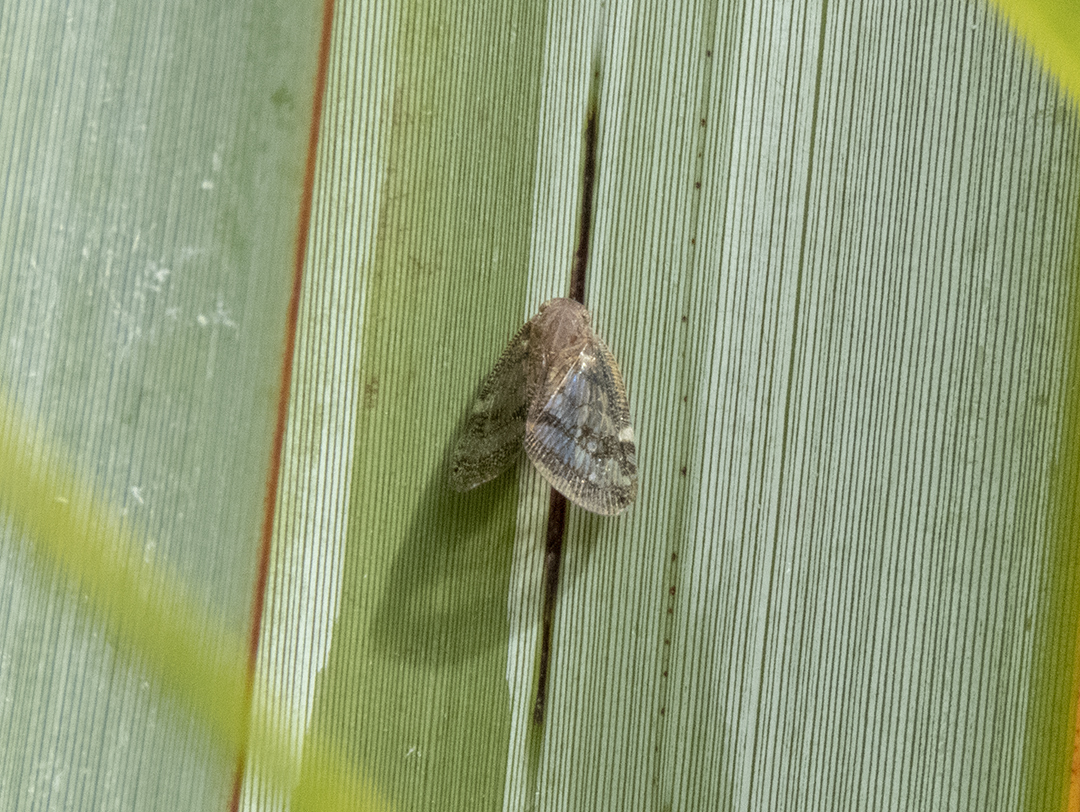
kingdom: Animalia
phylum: Arthropoda
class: Insecta
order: Hemiptera
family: Ricaniidae
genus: Scolypopa
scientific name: Scolypopa australis
